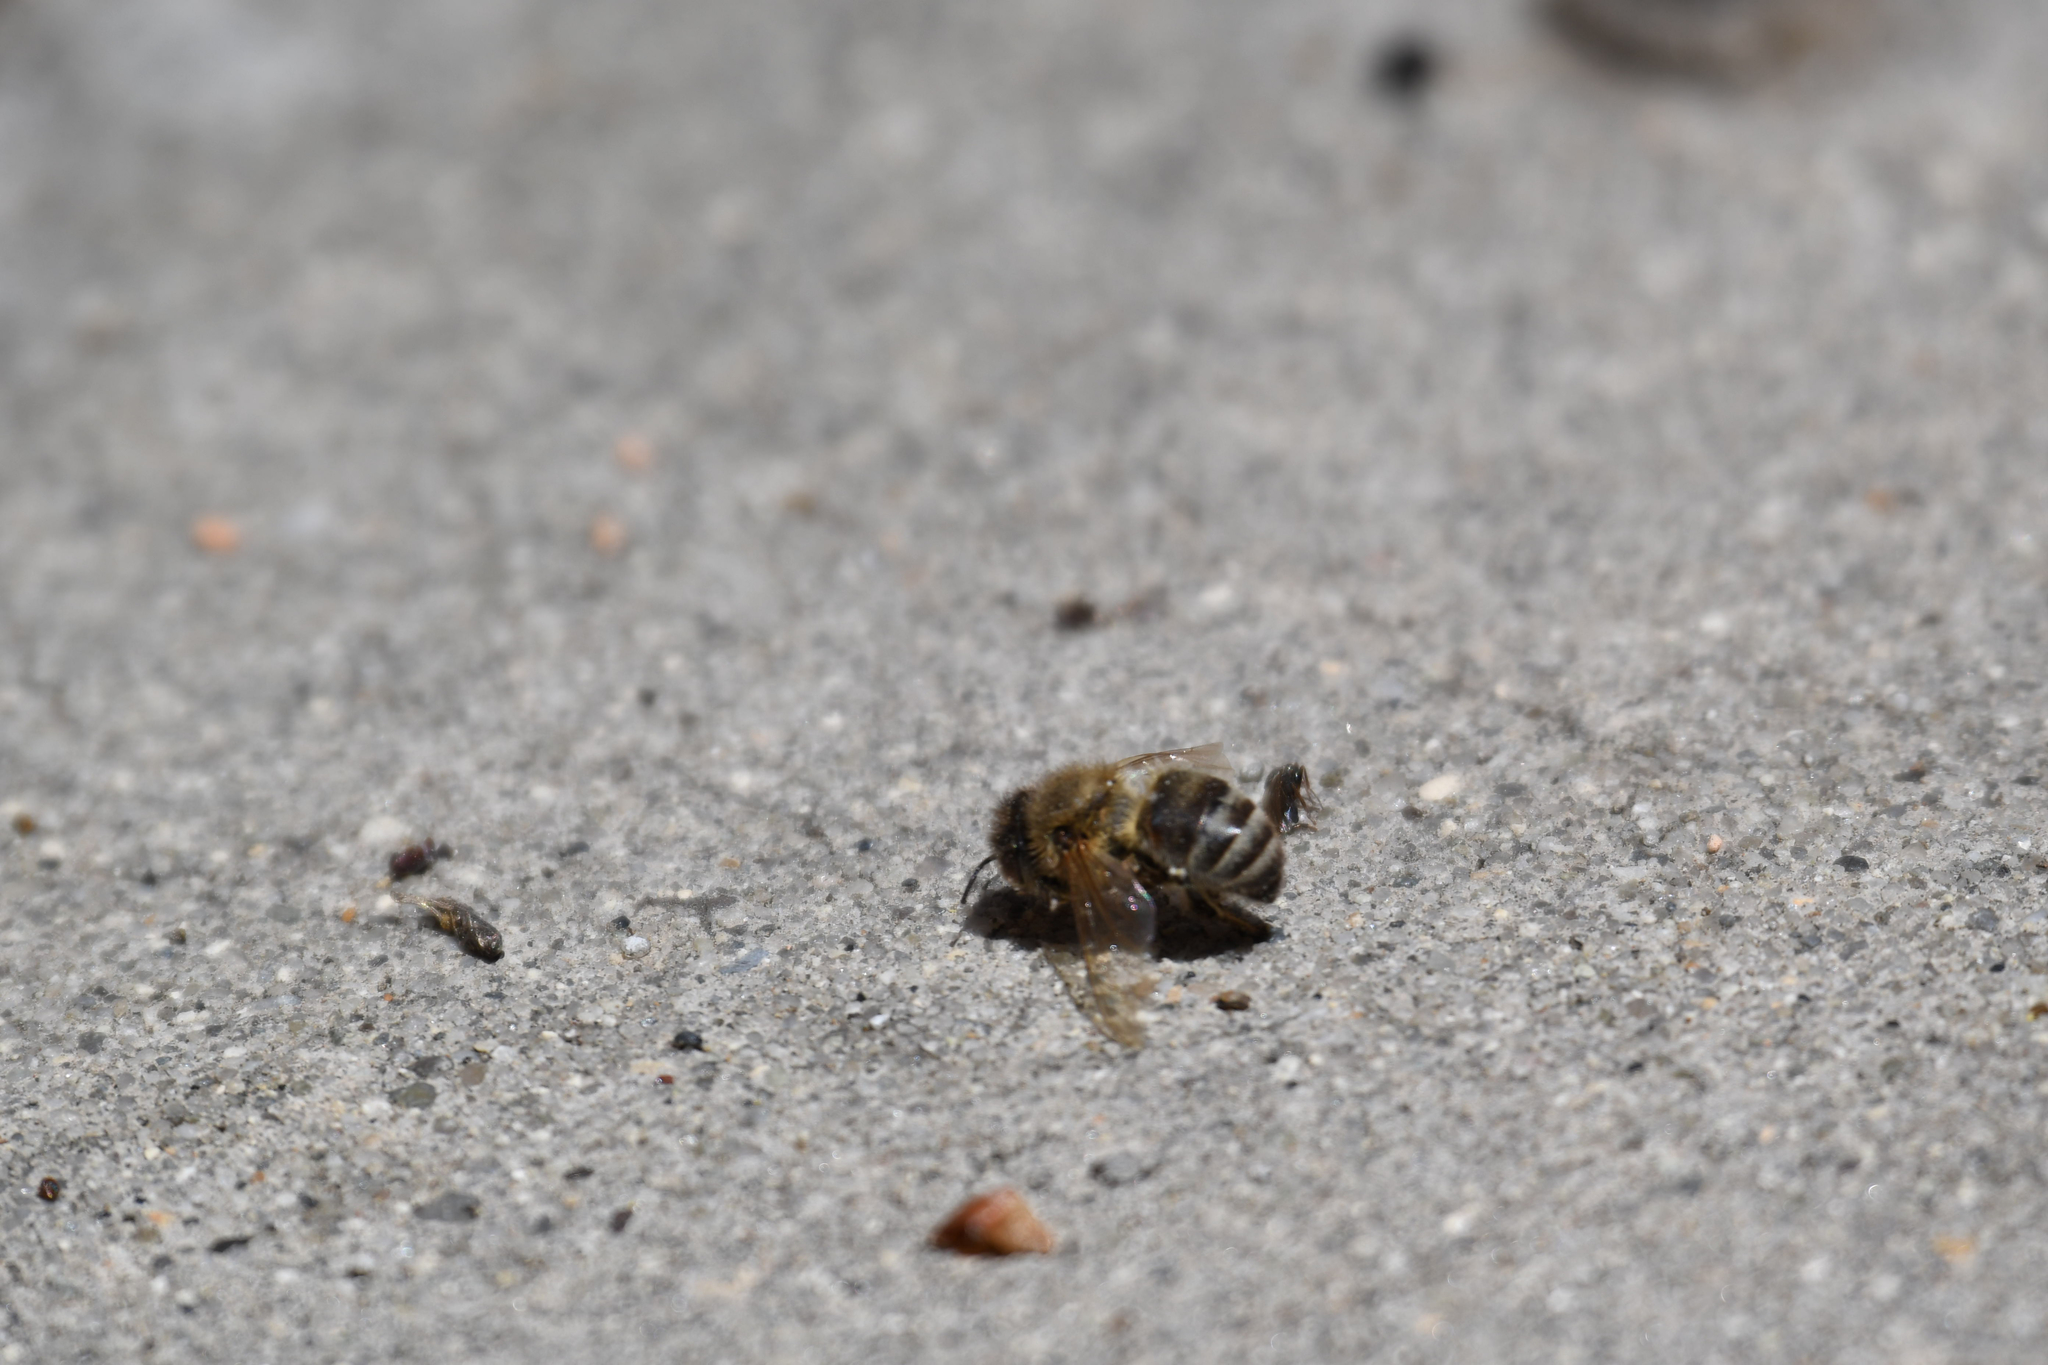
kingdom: Animalia
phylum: Arthropoda
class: Insecta
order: Hymenoptera
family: Apidae
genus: Apis
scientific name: Apis mellifera
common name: Honey bee
